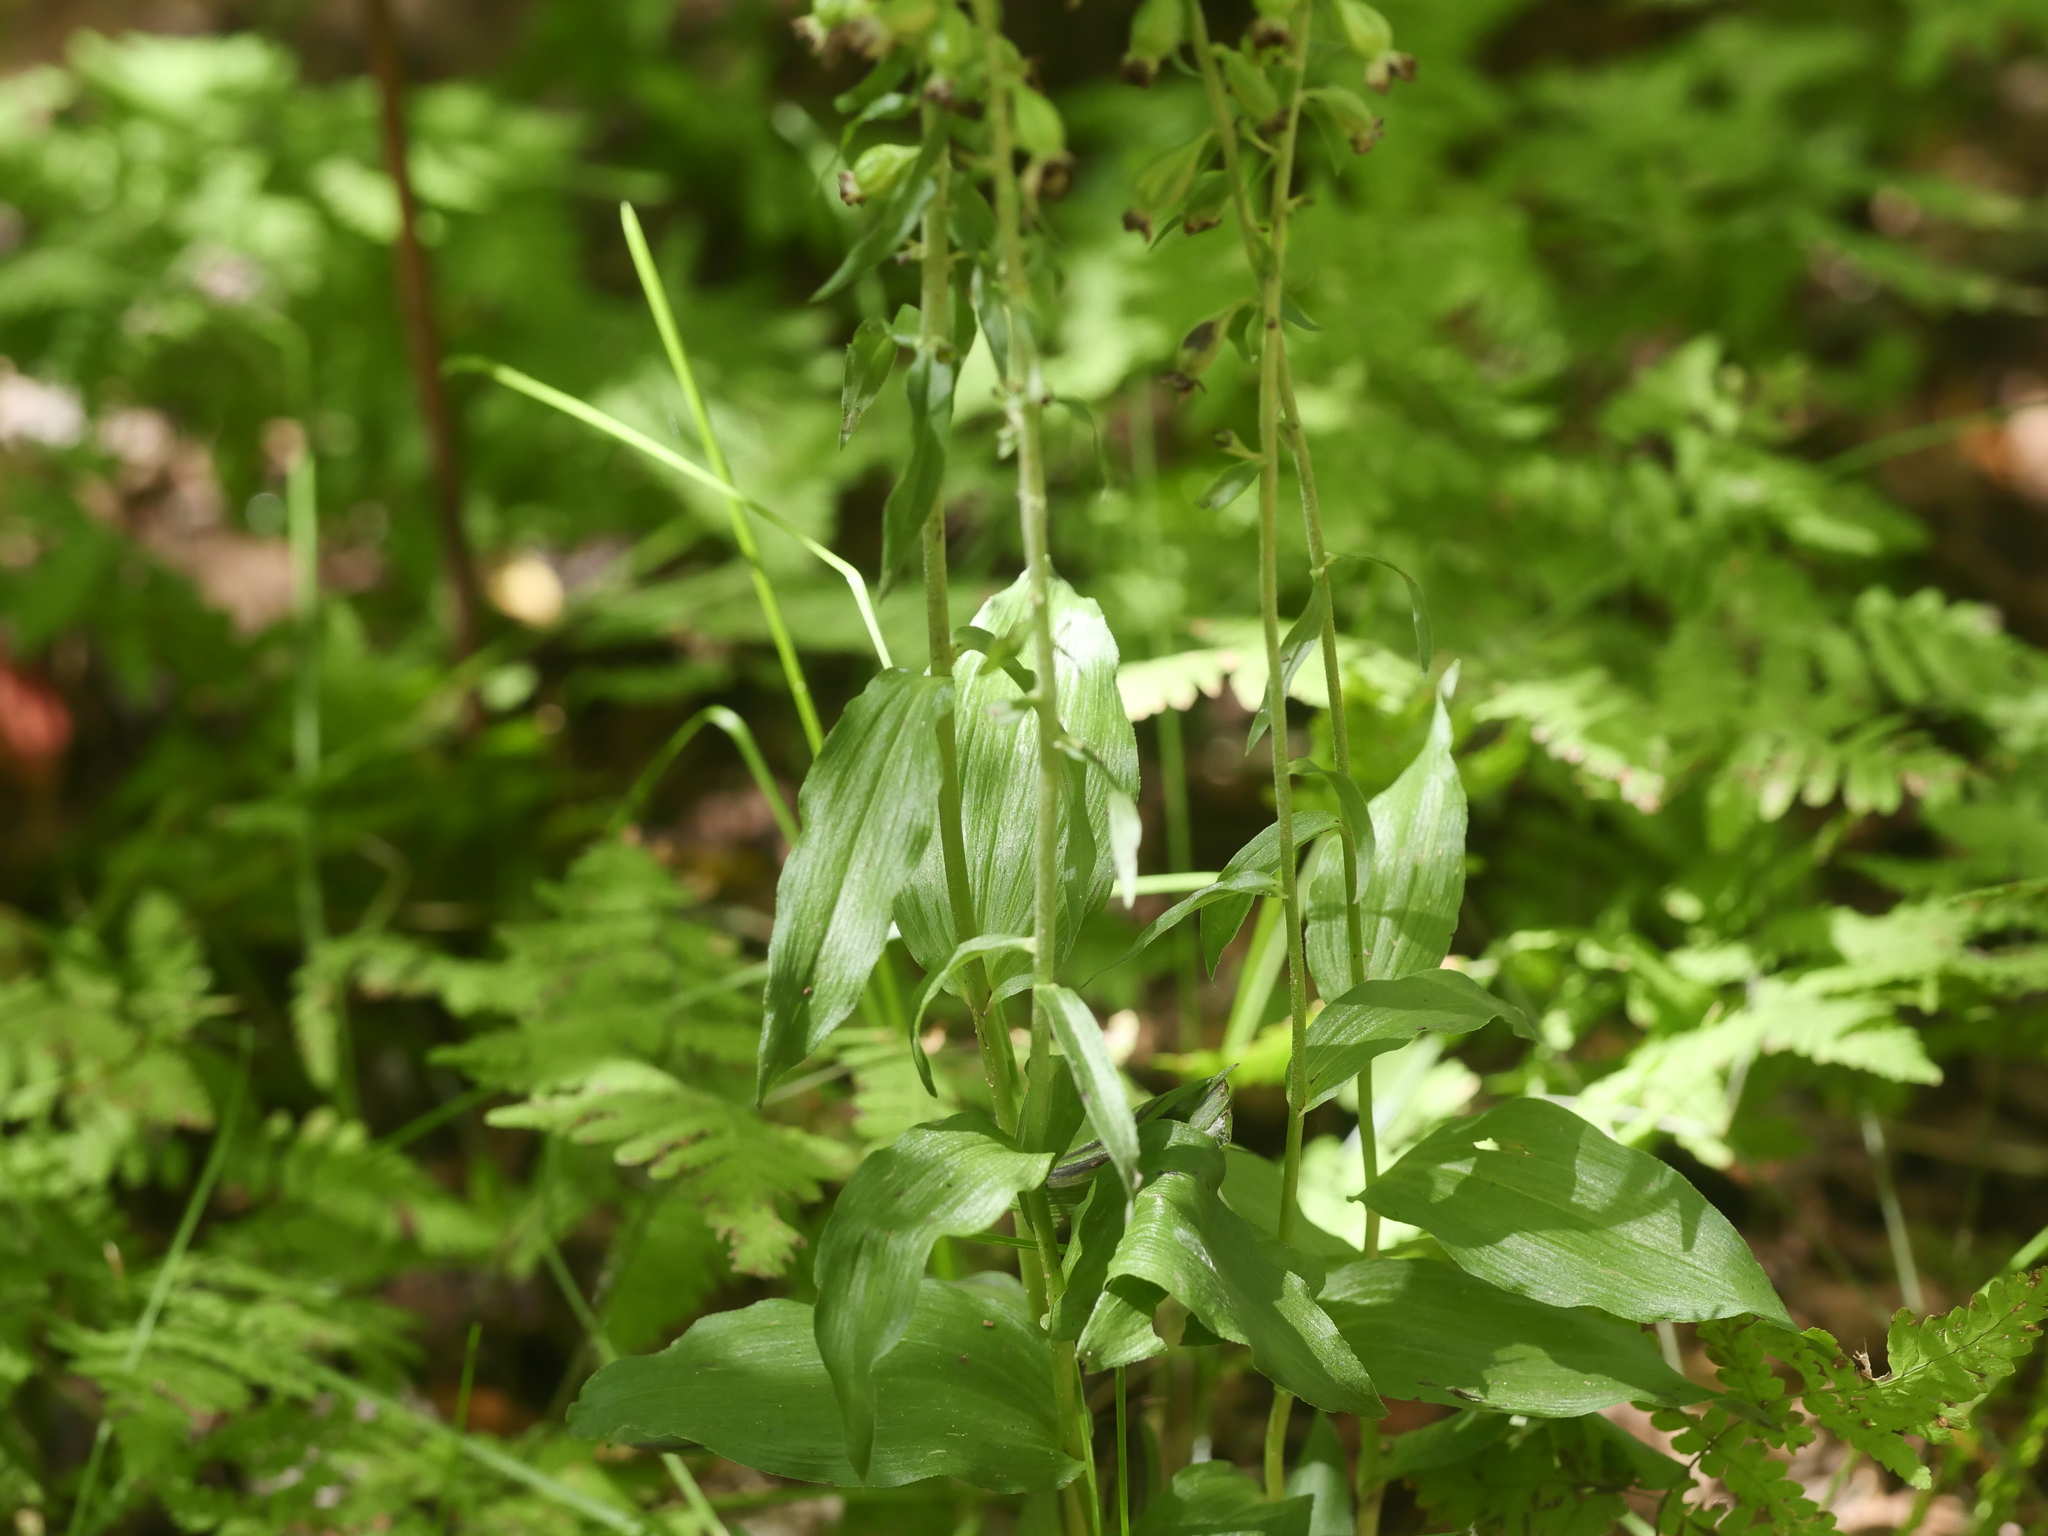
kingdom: Plantae
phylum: Tracheophyta
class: Liliopsida
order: Asparagales
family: Orchidaceae
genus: Epipactis
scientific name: Epipactis helleborine
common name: Broad-leaved helleborine
